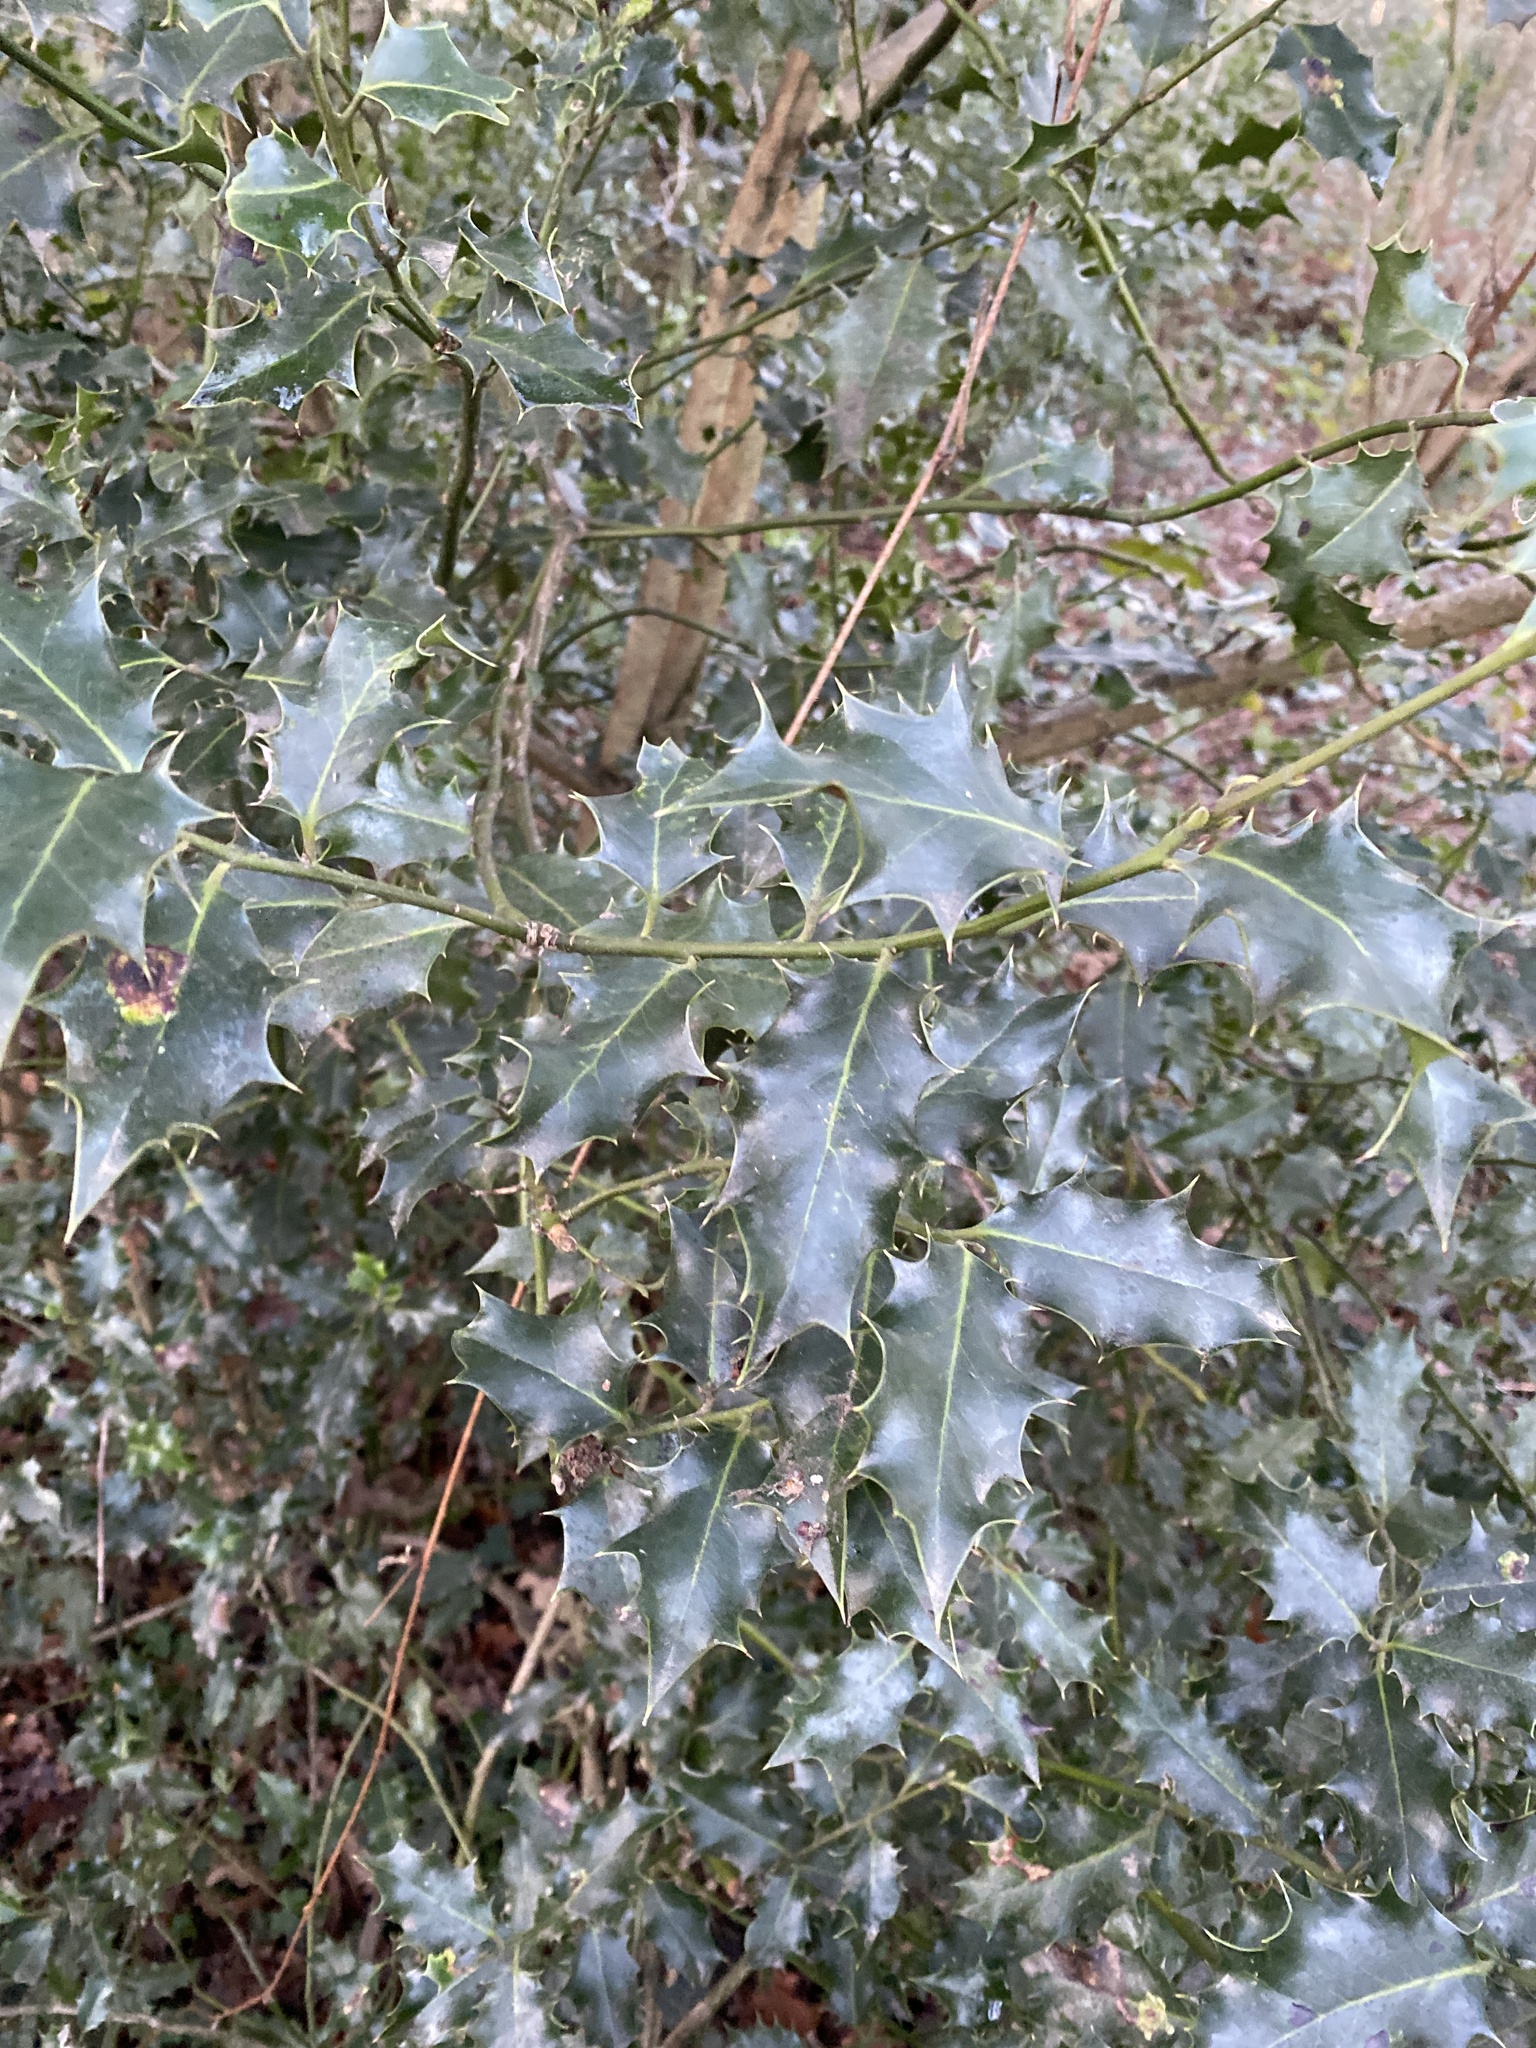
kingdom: Plantae
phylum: Tracheophyta
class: Magnoliopsida
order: Aquifoliales
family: Aquifoliaceae
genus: Ilex
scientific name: Ilex aquifolium
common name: English holly
